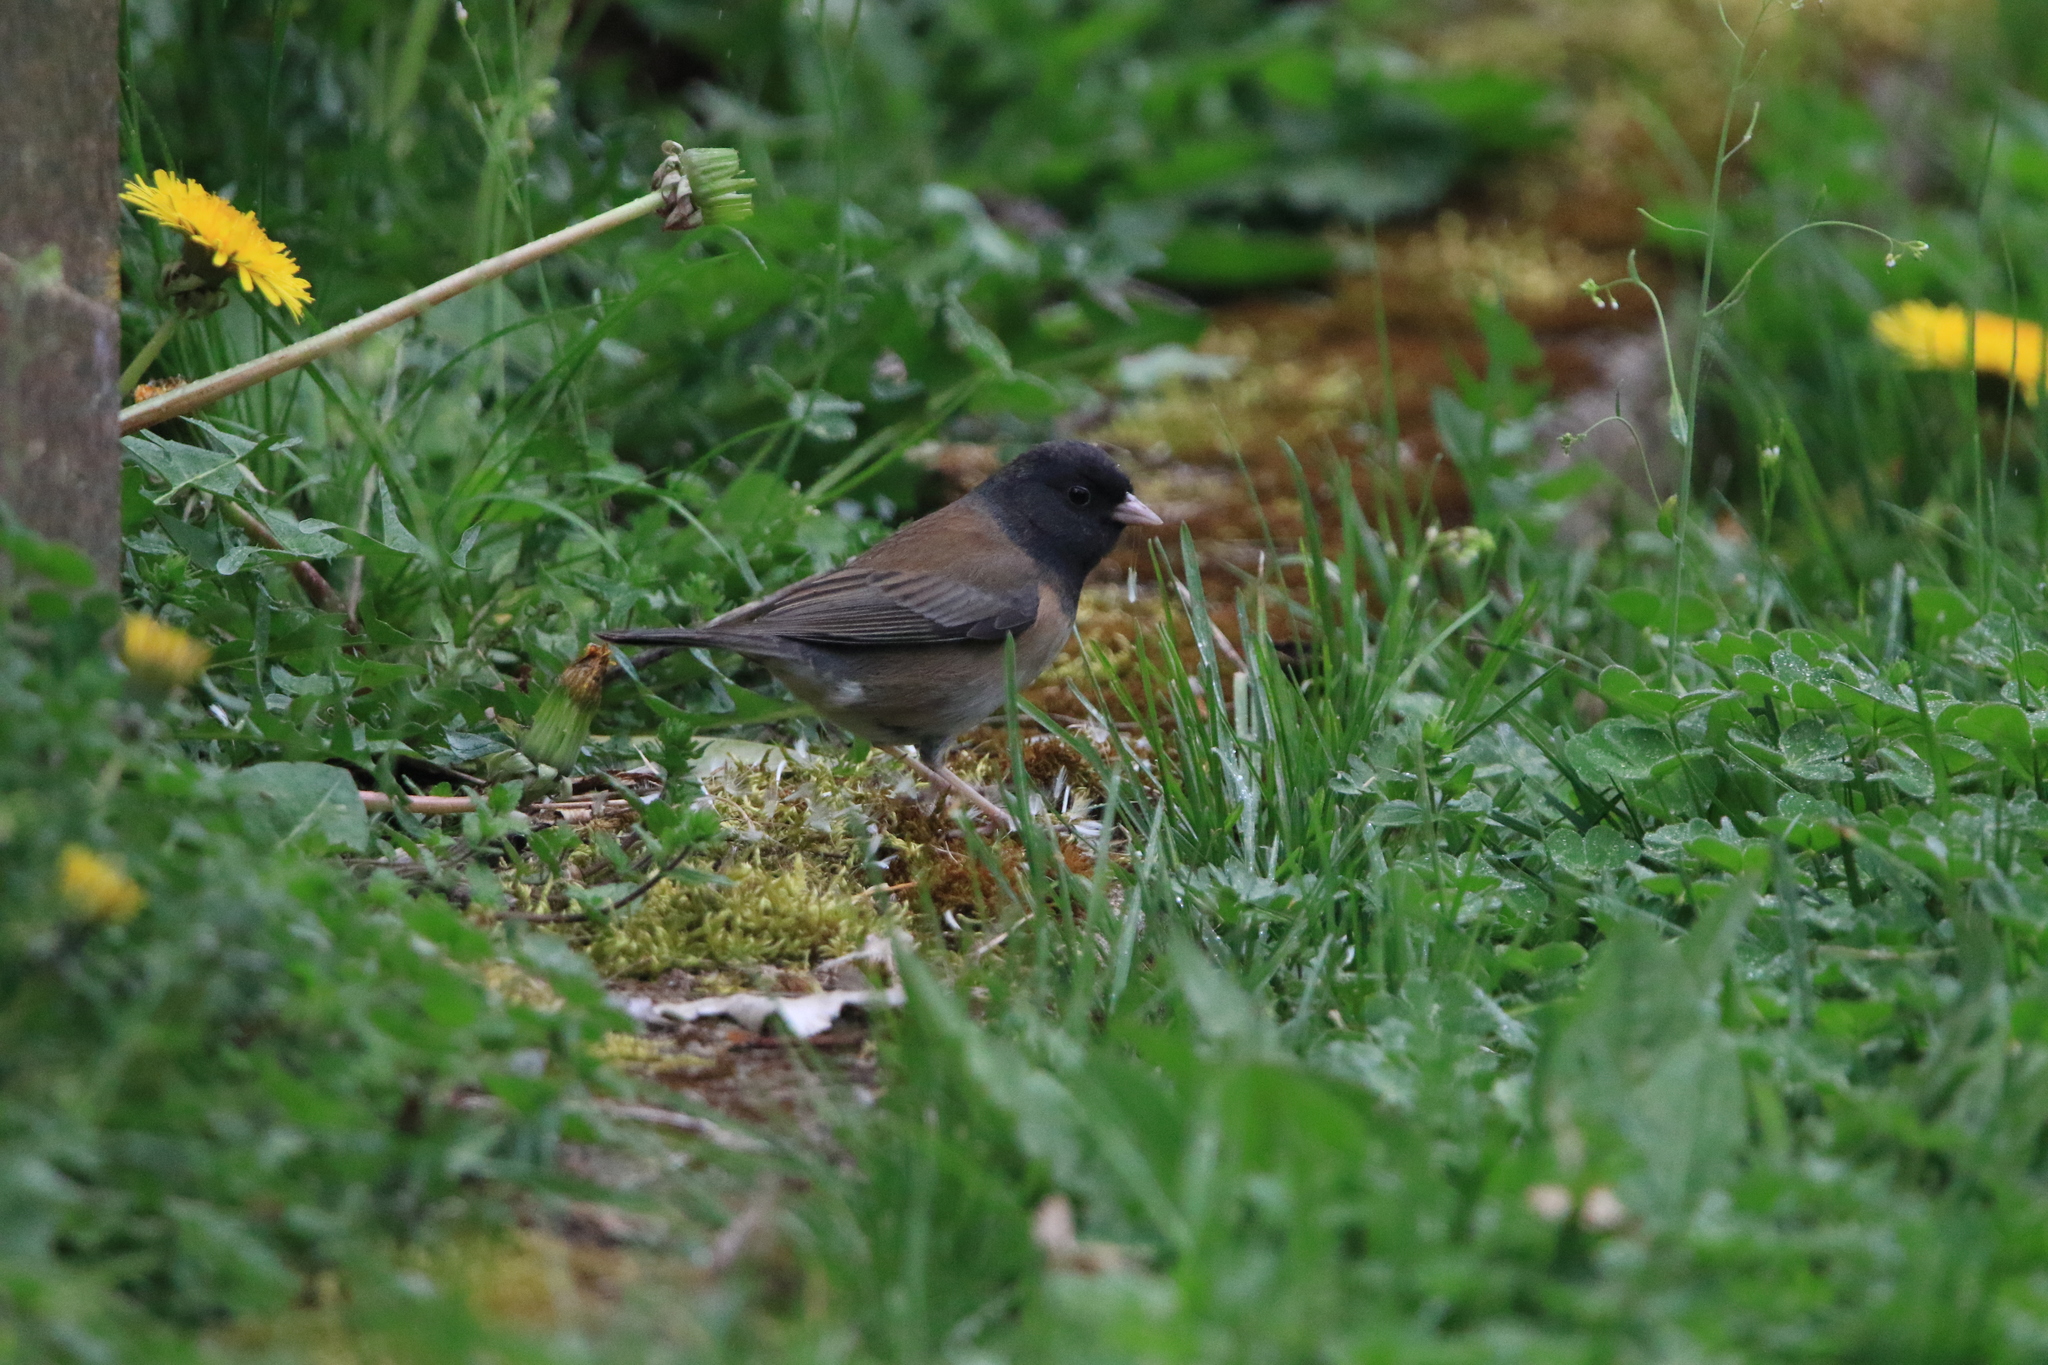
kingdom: Animalia
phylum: Chordata
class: Aves
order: Passeriformes
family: Passerellidae
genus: Junco
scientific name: Junco hyemalis
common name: Dark-eyed junco
